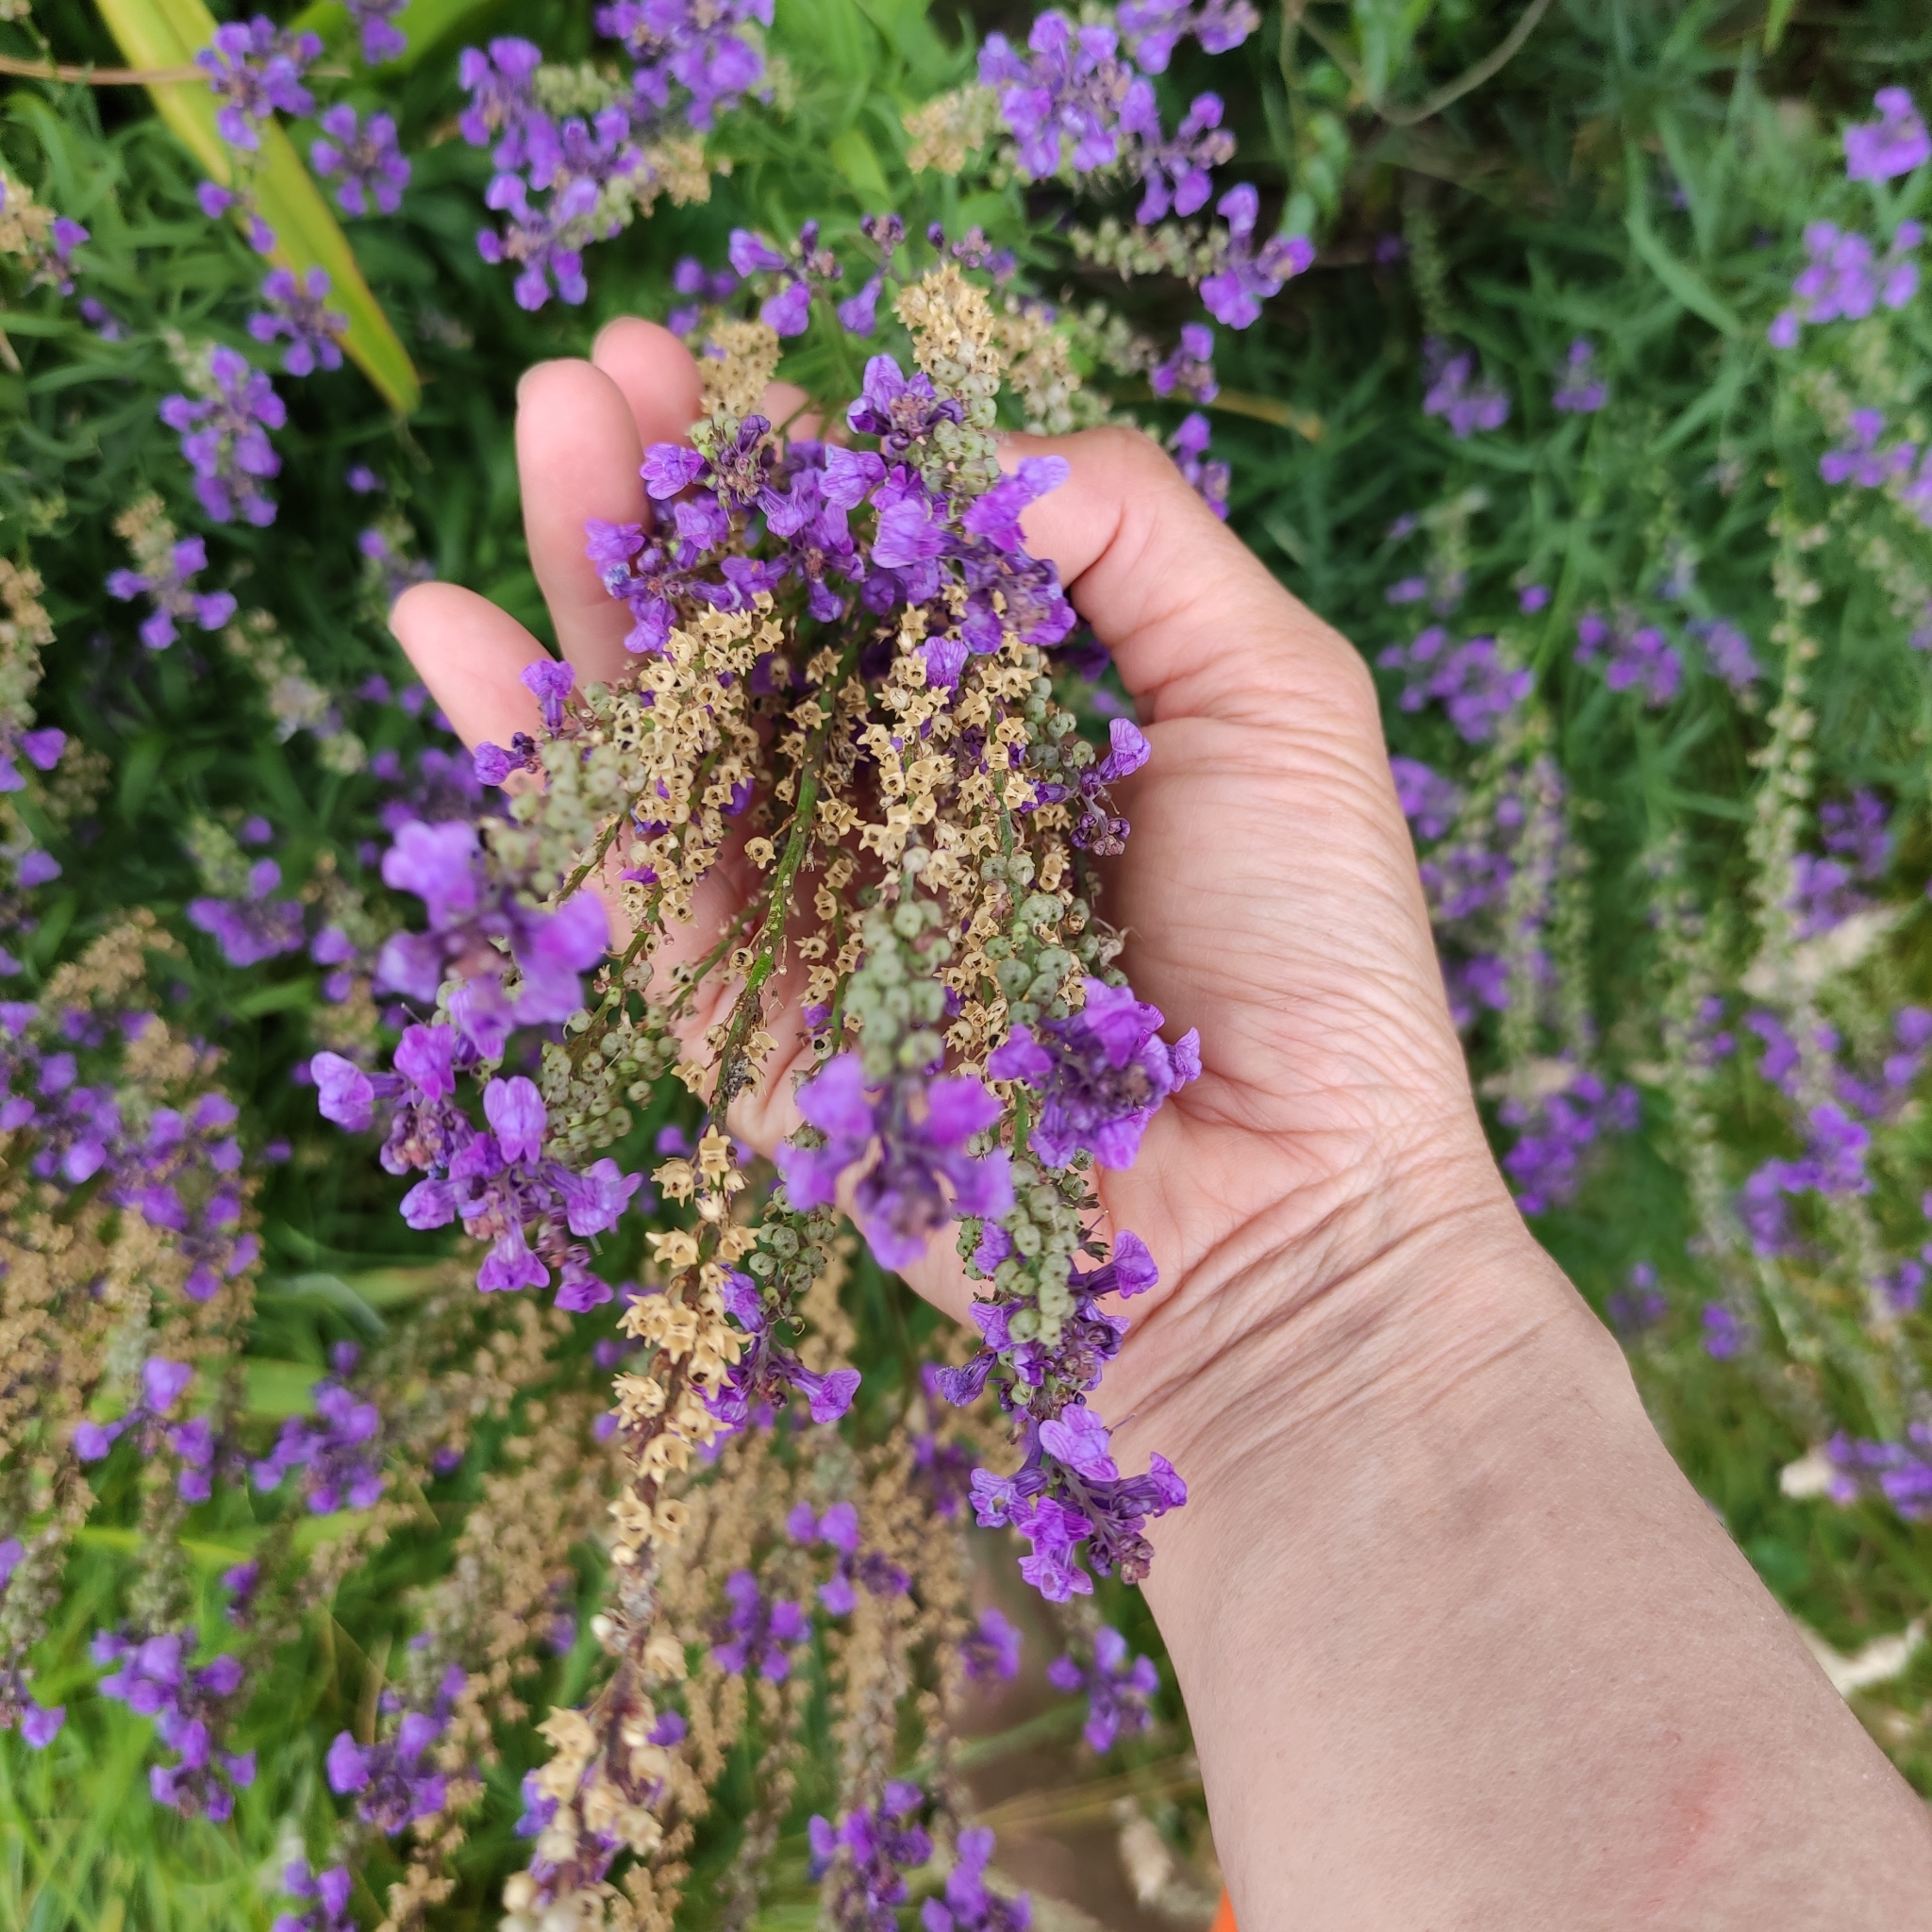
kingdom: Plantae
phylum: Tracheophyta
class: Magnoliopsida
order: Lamiales
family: Plantaginaceae
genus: Linaria
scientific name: Linaria purpurea
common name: Purple toadflax
